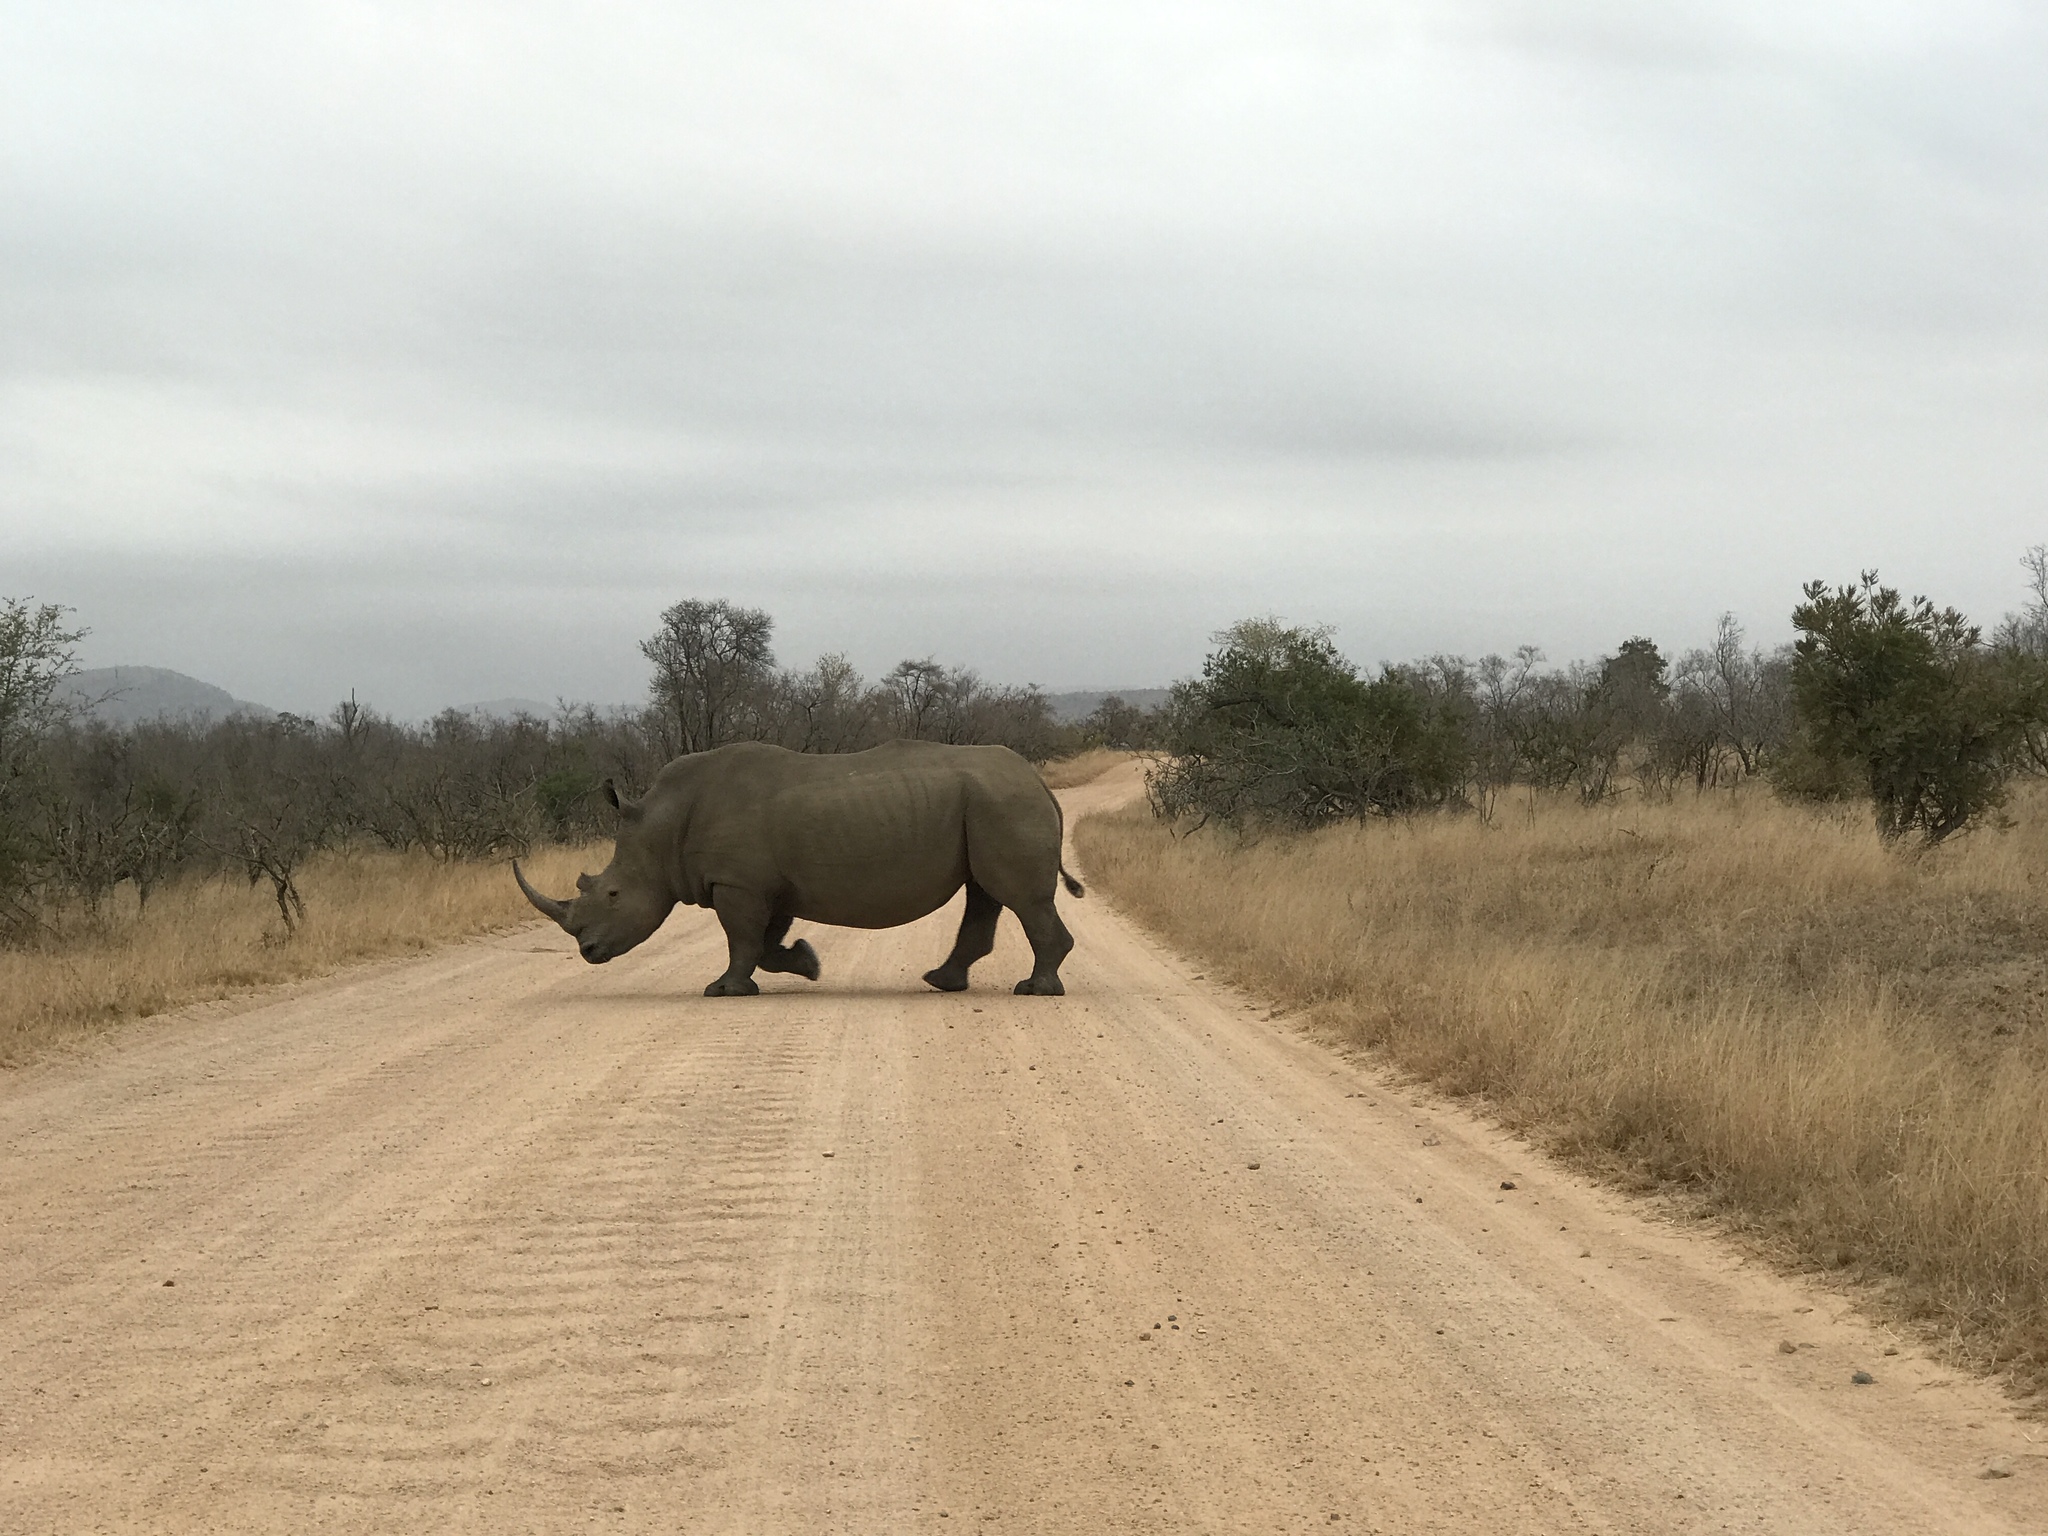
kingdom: Animalia
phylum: Chordata
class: Mammalia
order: Perissodactyla
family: Rhinocerotidae
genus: Ceratotherium
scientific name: Ceratotherium simum
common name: White rhinoceros
